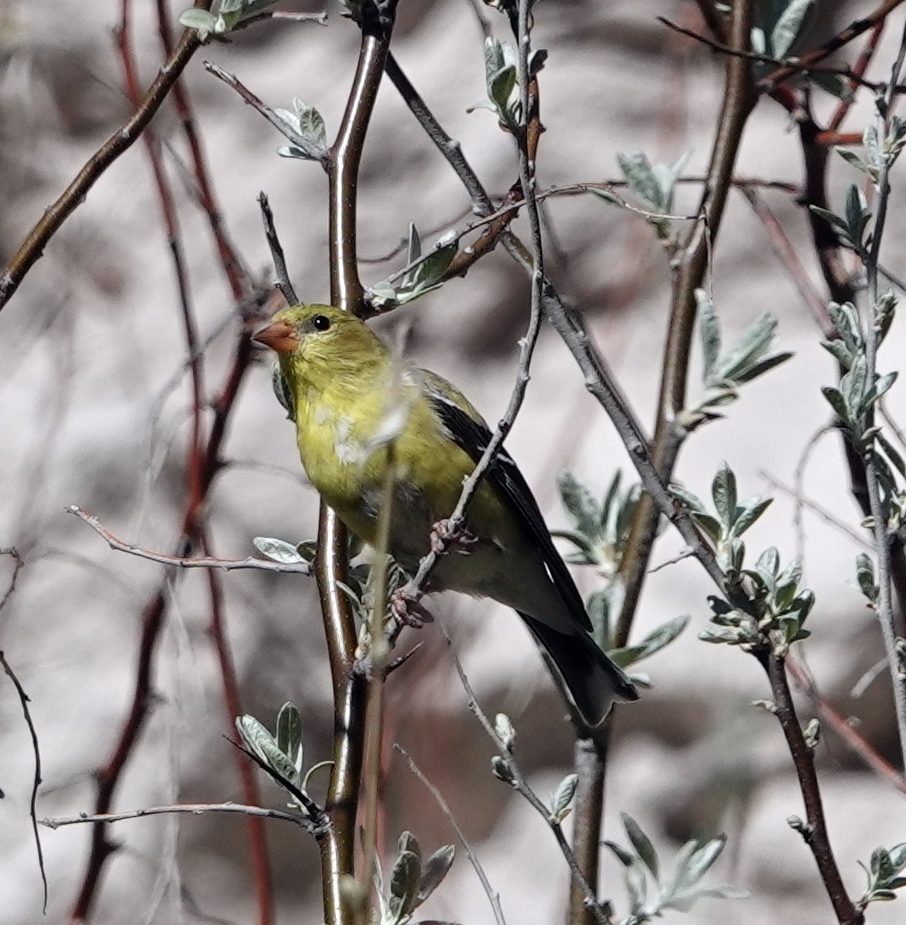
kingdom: Animalia
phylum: Chordata
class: Aves
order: Passeriformes
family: Fringillidae
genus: Spinus
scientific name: Spinus tristis
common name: American goldfinch
